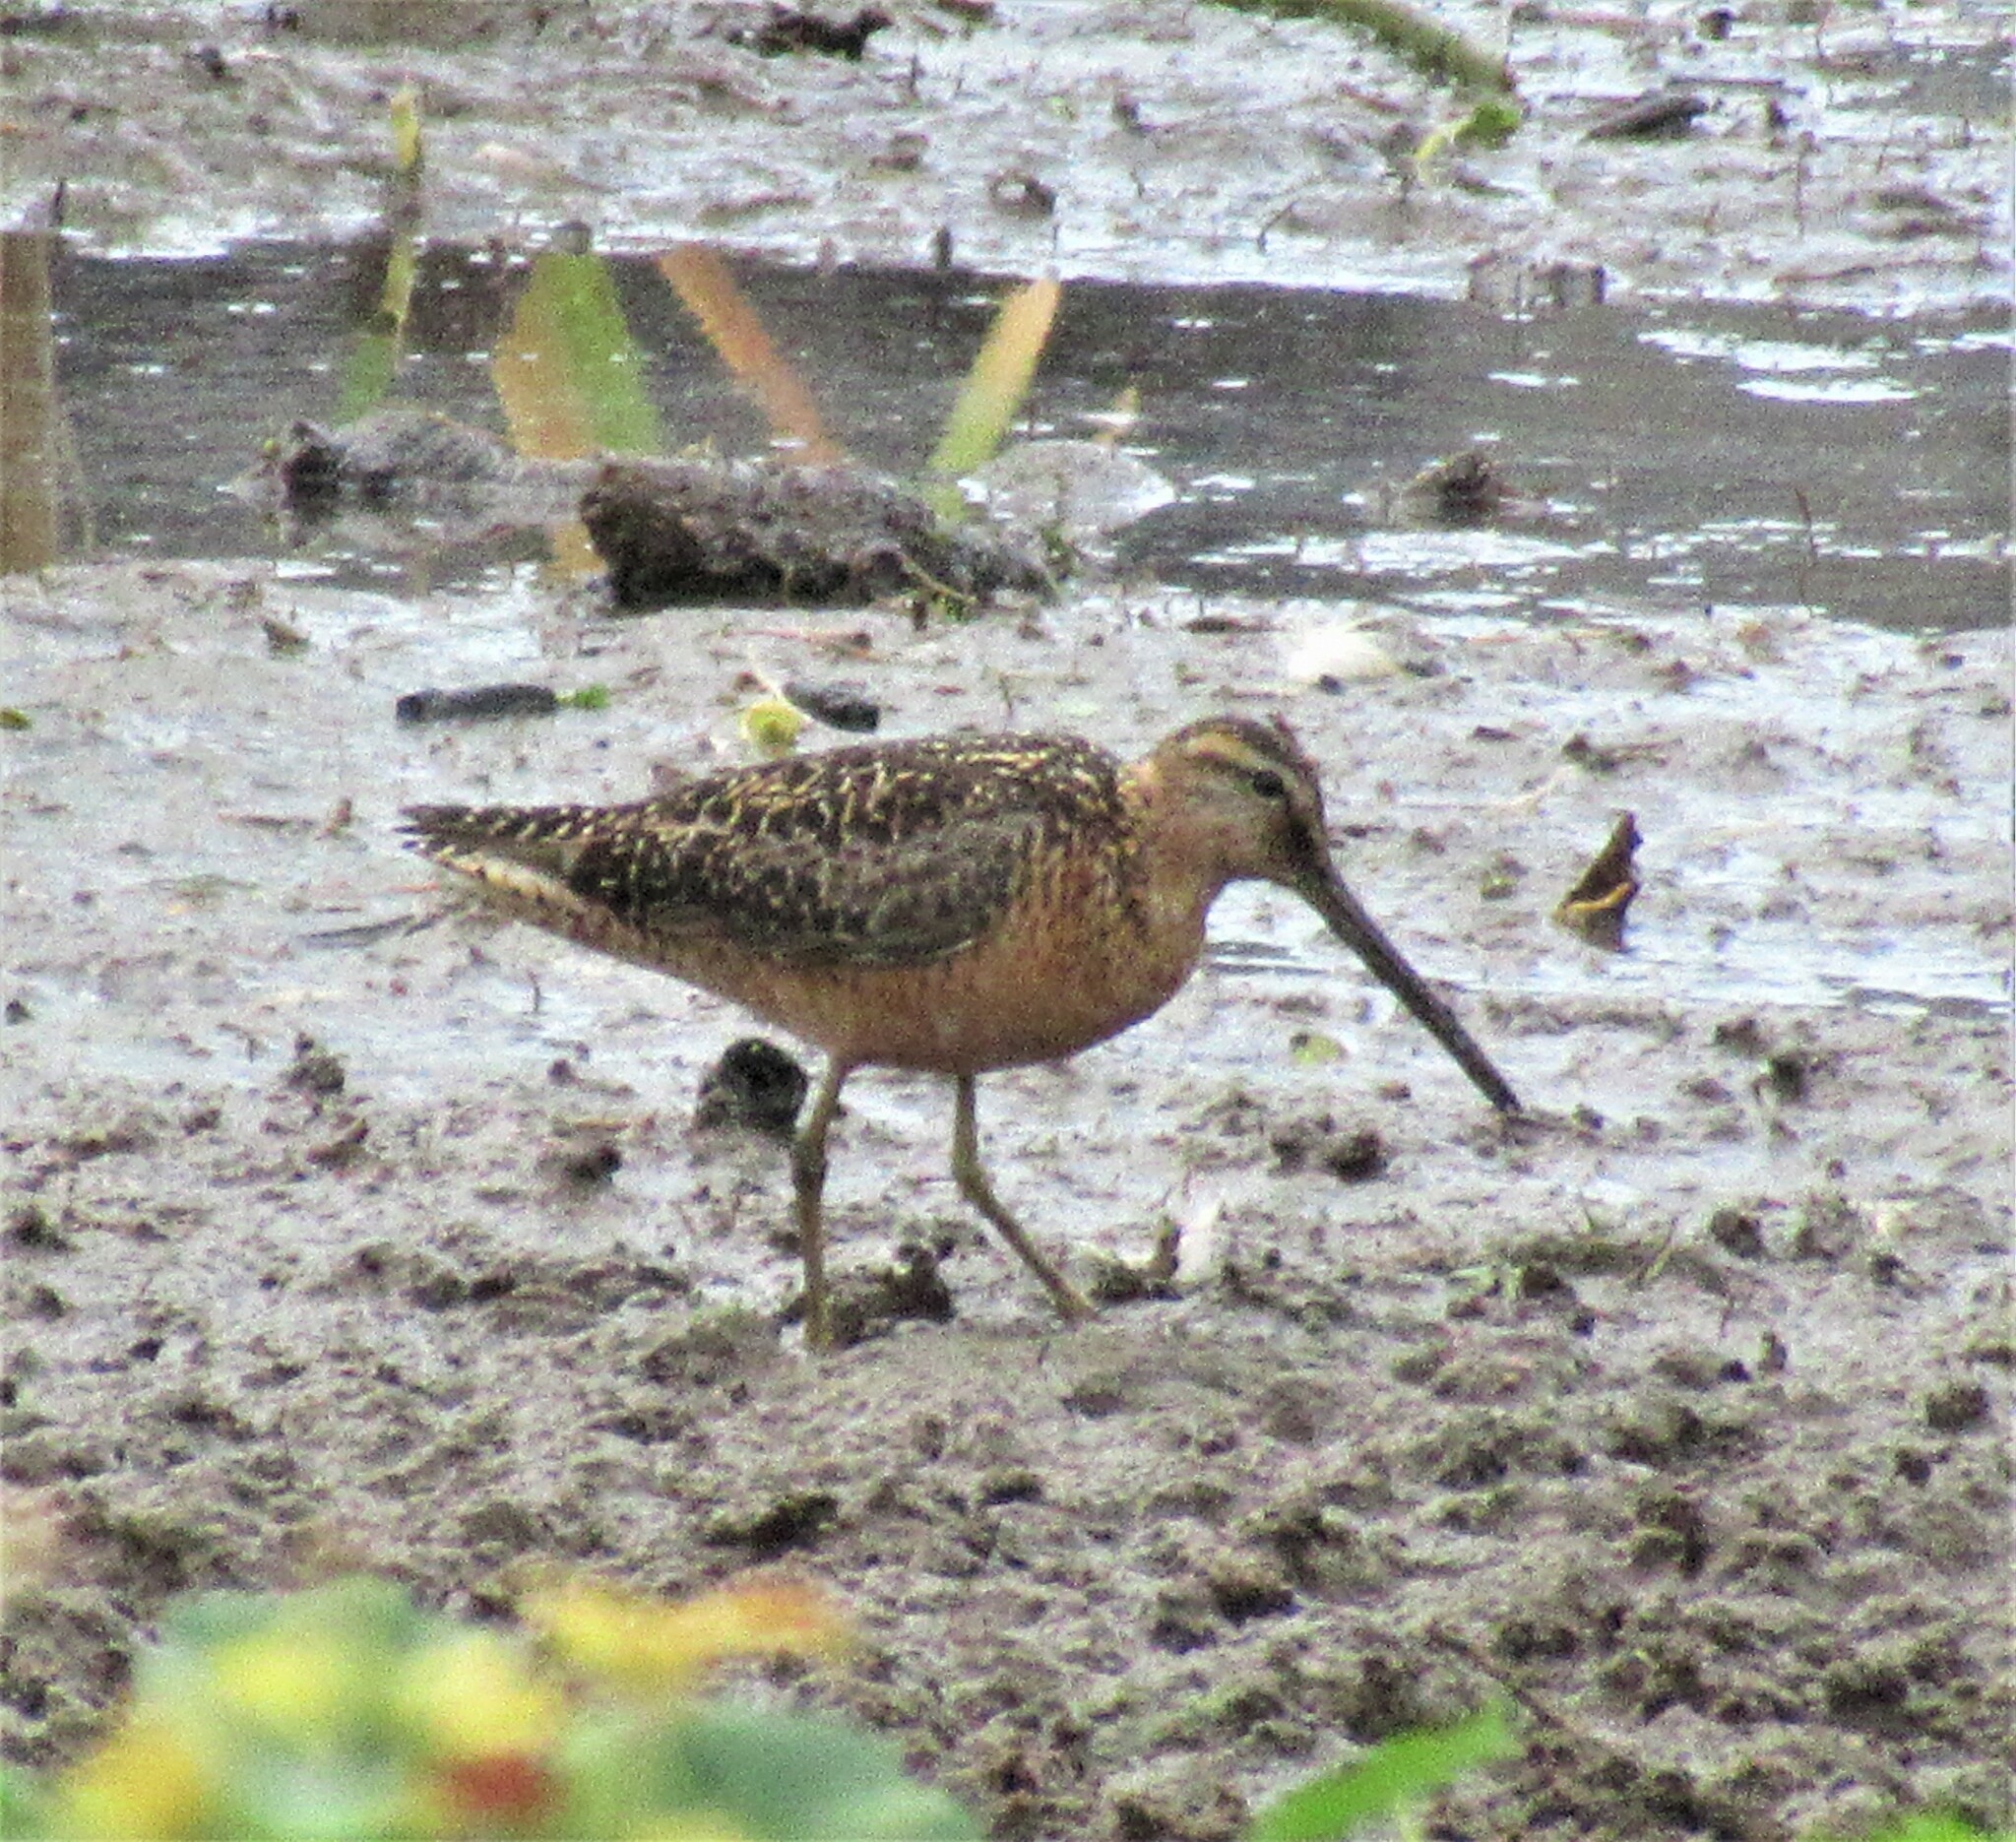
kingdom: Animalia
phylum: Chordata
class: Aves
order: Charadriiformes
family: Scolopacidae
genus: Limnodromus
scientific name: Limnodromus scolopaceus
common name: Long-billed dowitcher
